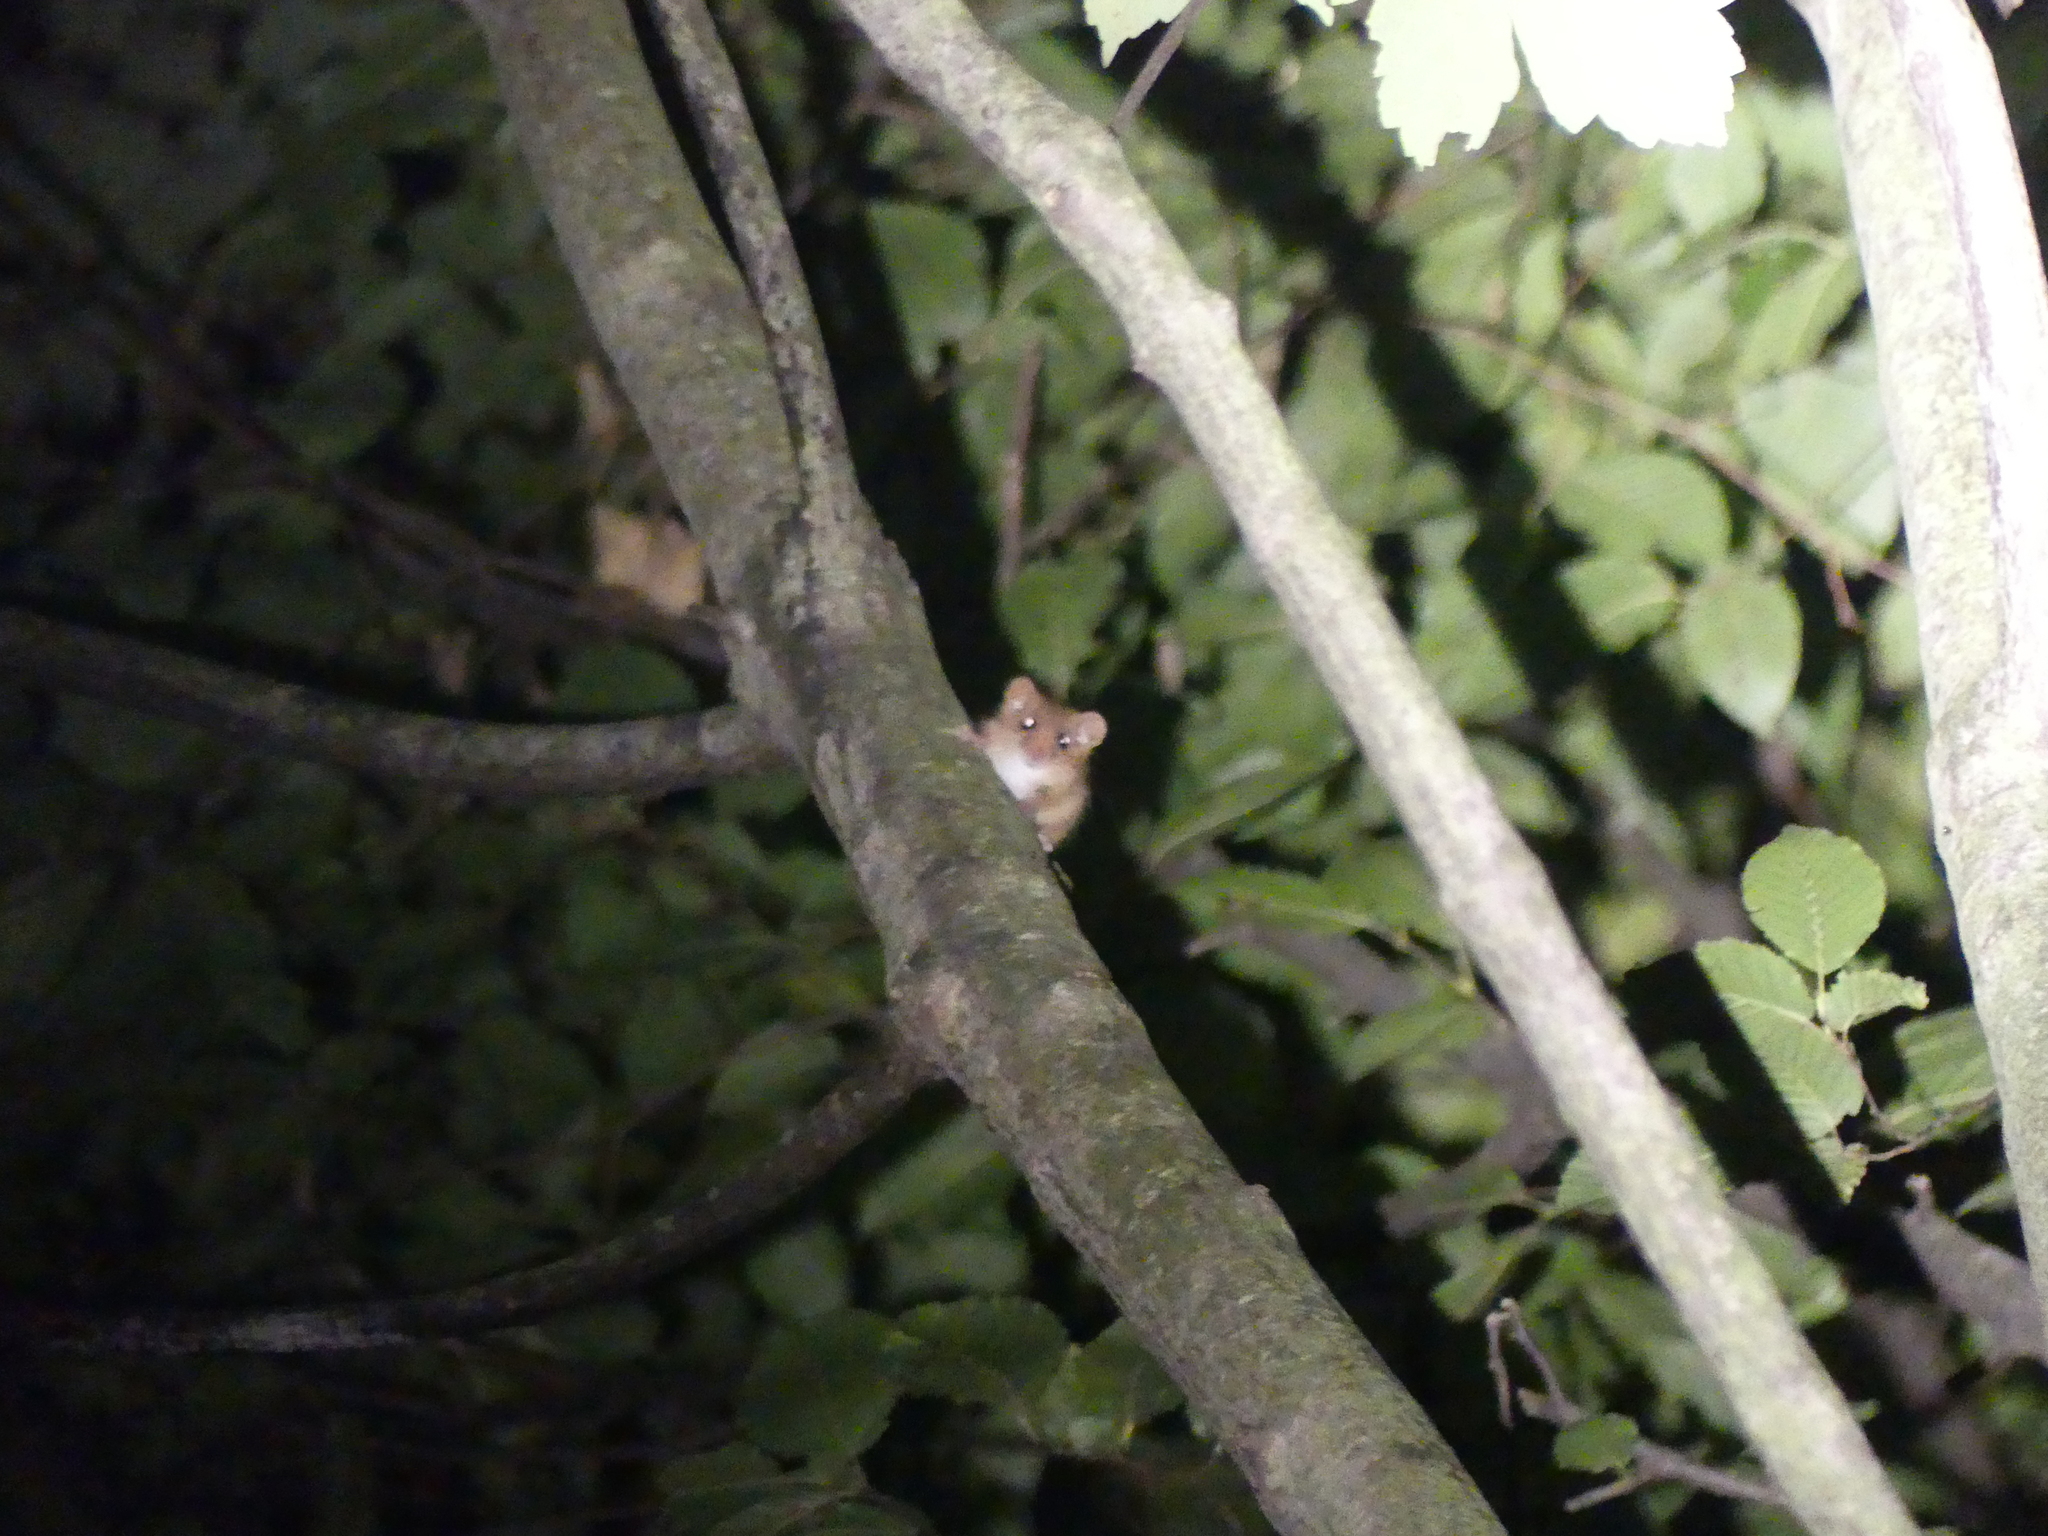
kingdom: Animalia
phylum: Chordata
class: Mammalia
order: Rodentia
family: Gliridae
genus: Muscardinus
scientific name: Muscardinus avellanarius
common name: Hazel dormouse
